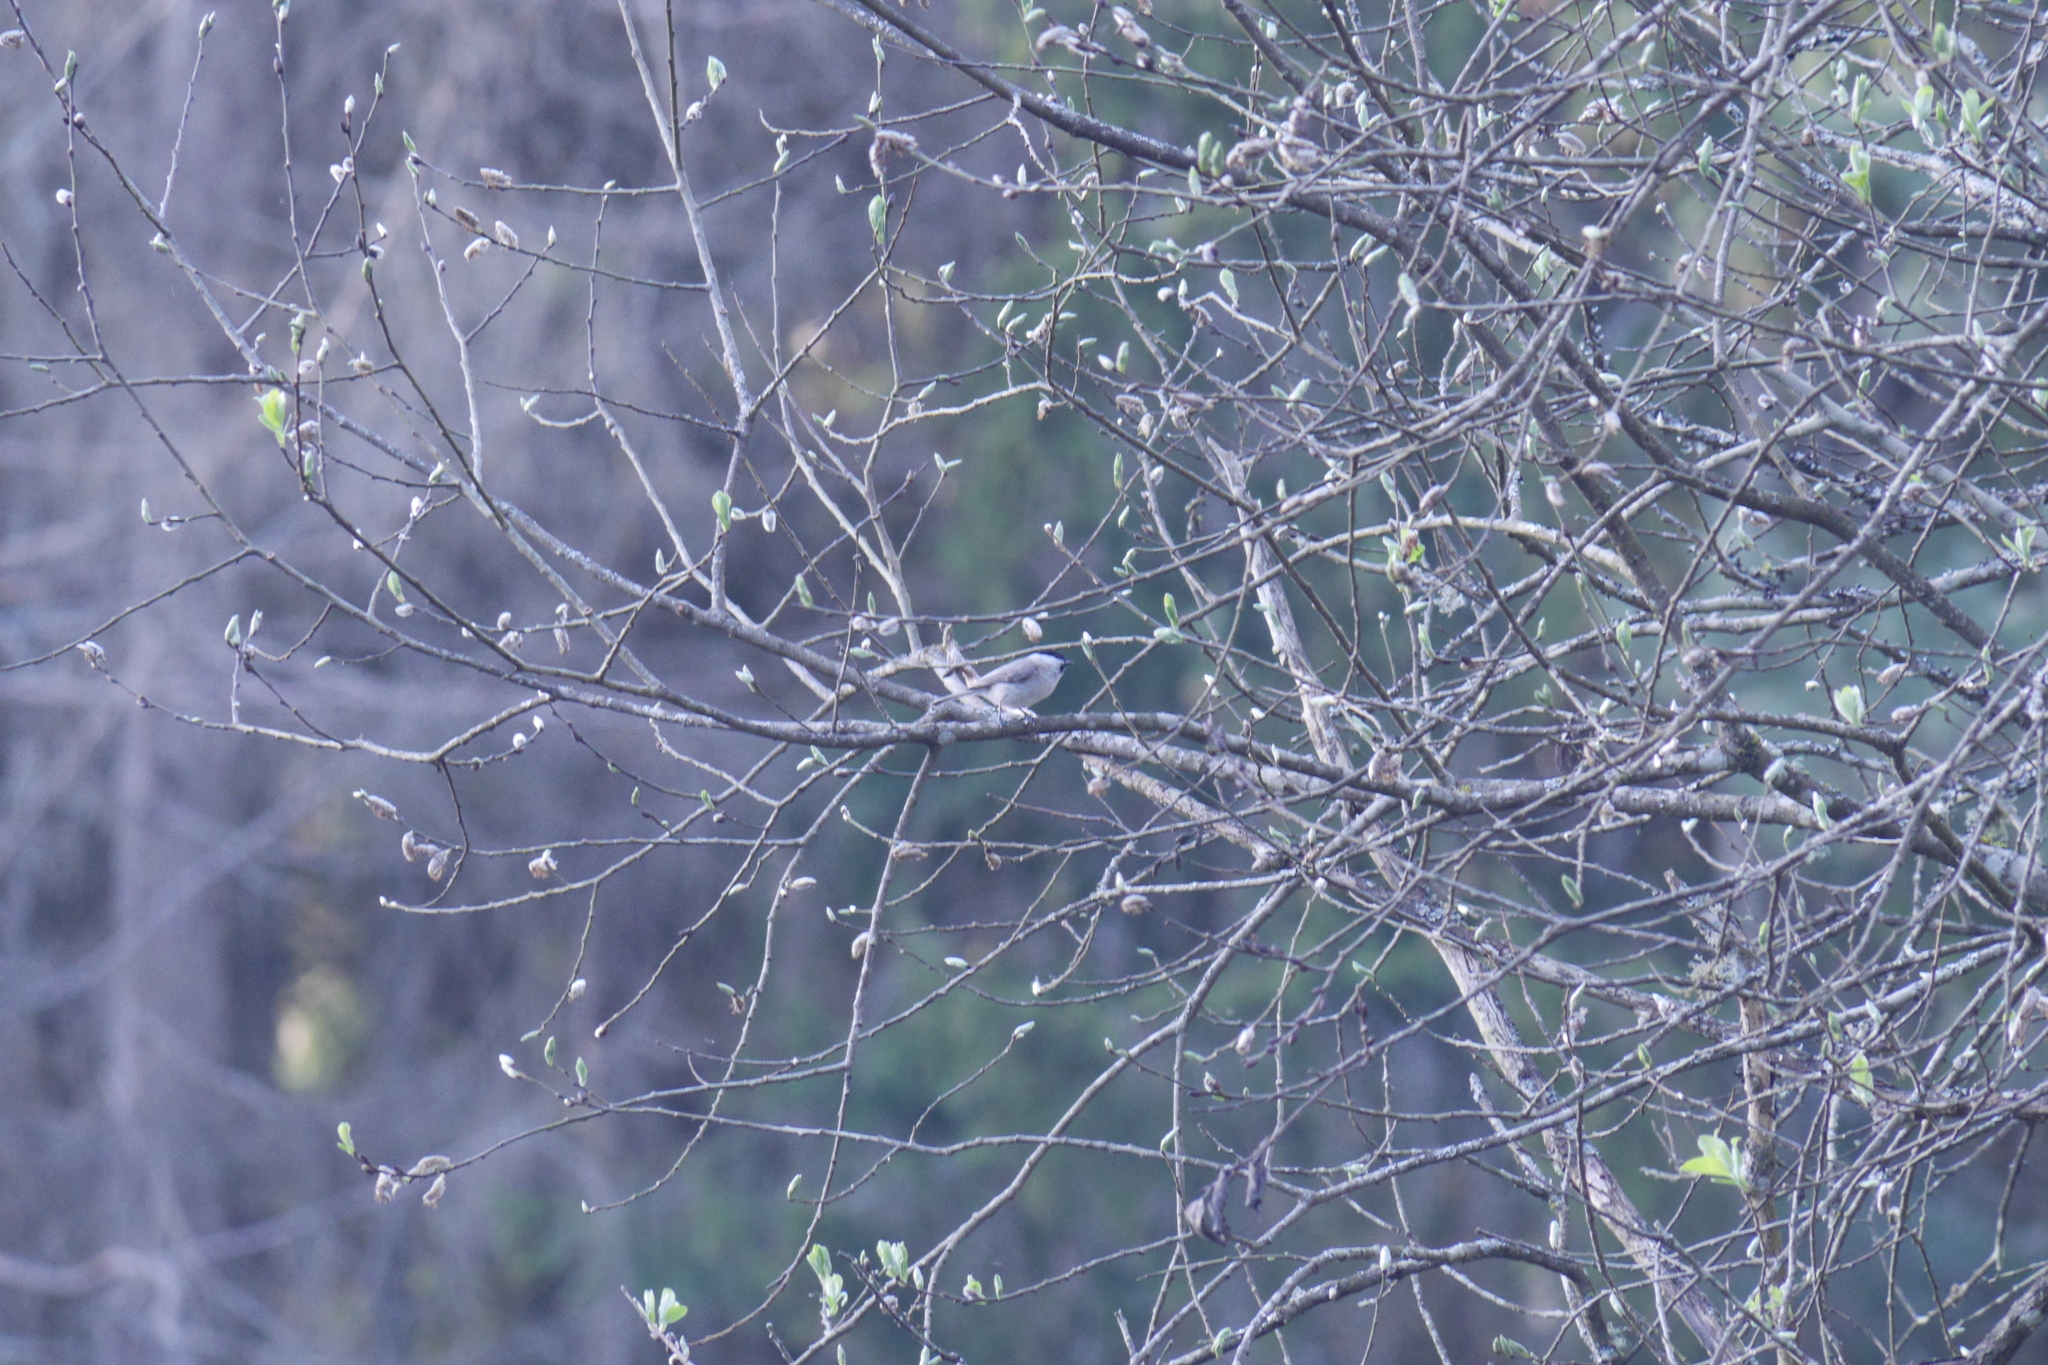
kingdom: Animalia
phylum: Chordata
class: Aves
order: Passeriformes
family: Paridae
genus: Poecile
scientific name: Poecile palustris
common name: Marsh tit
